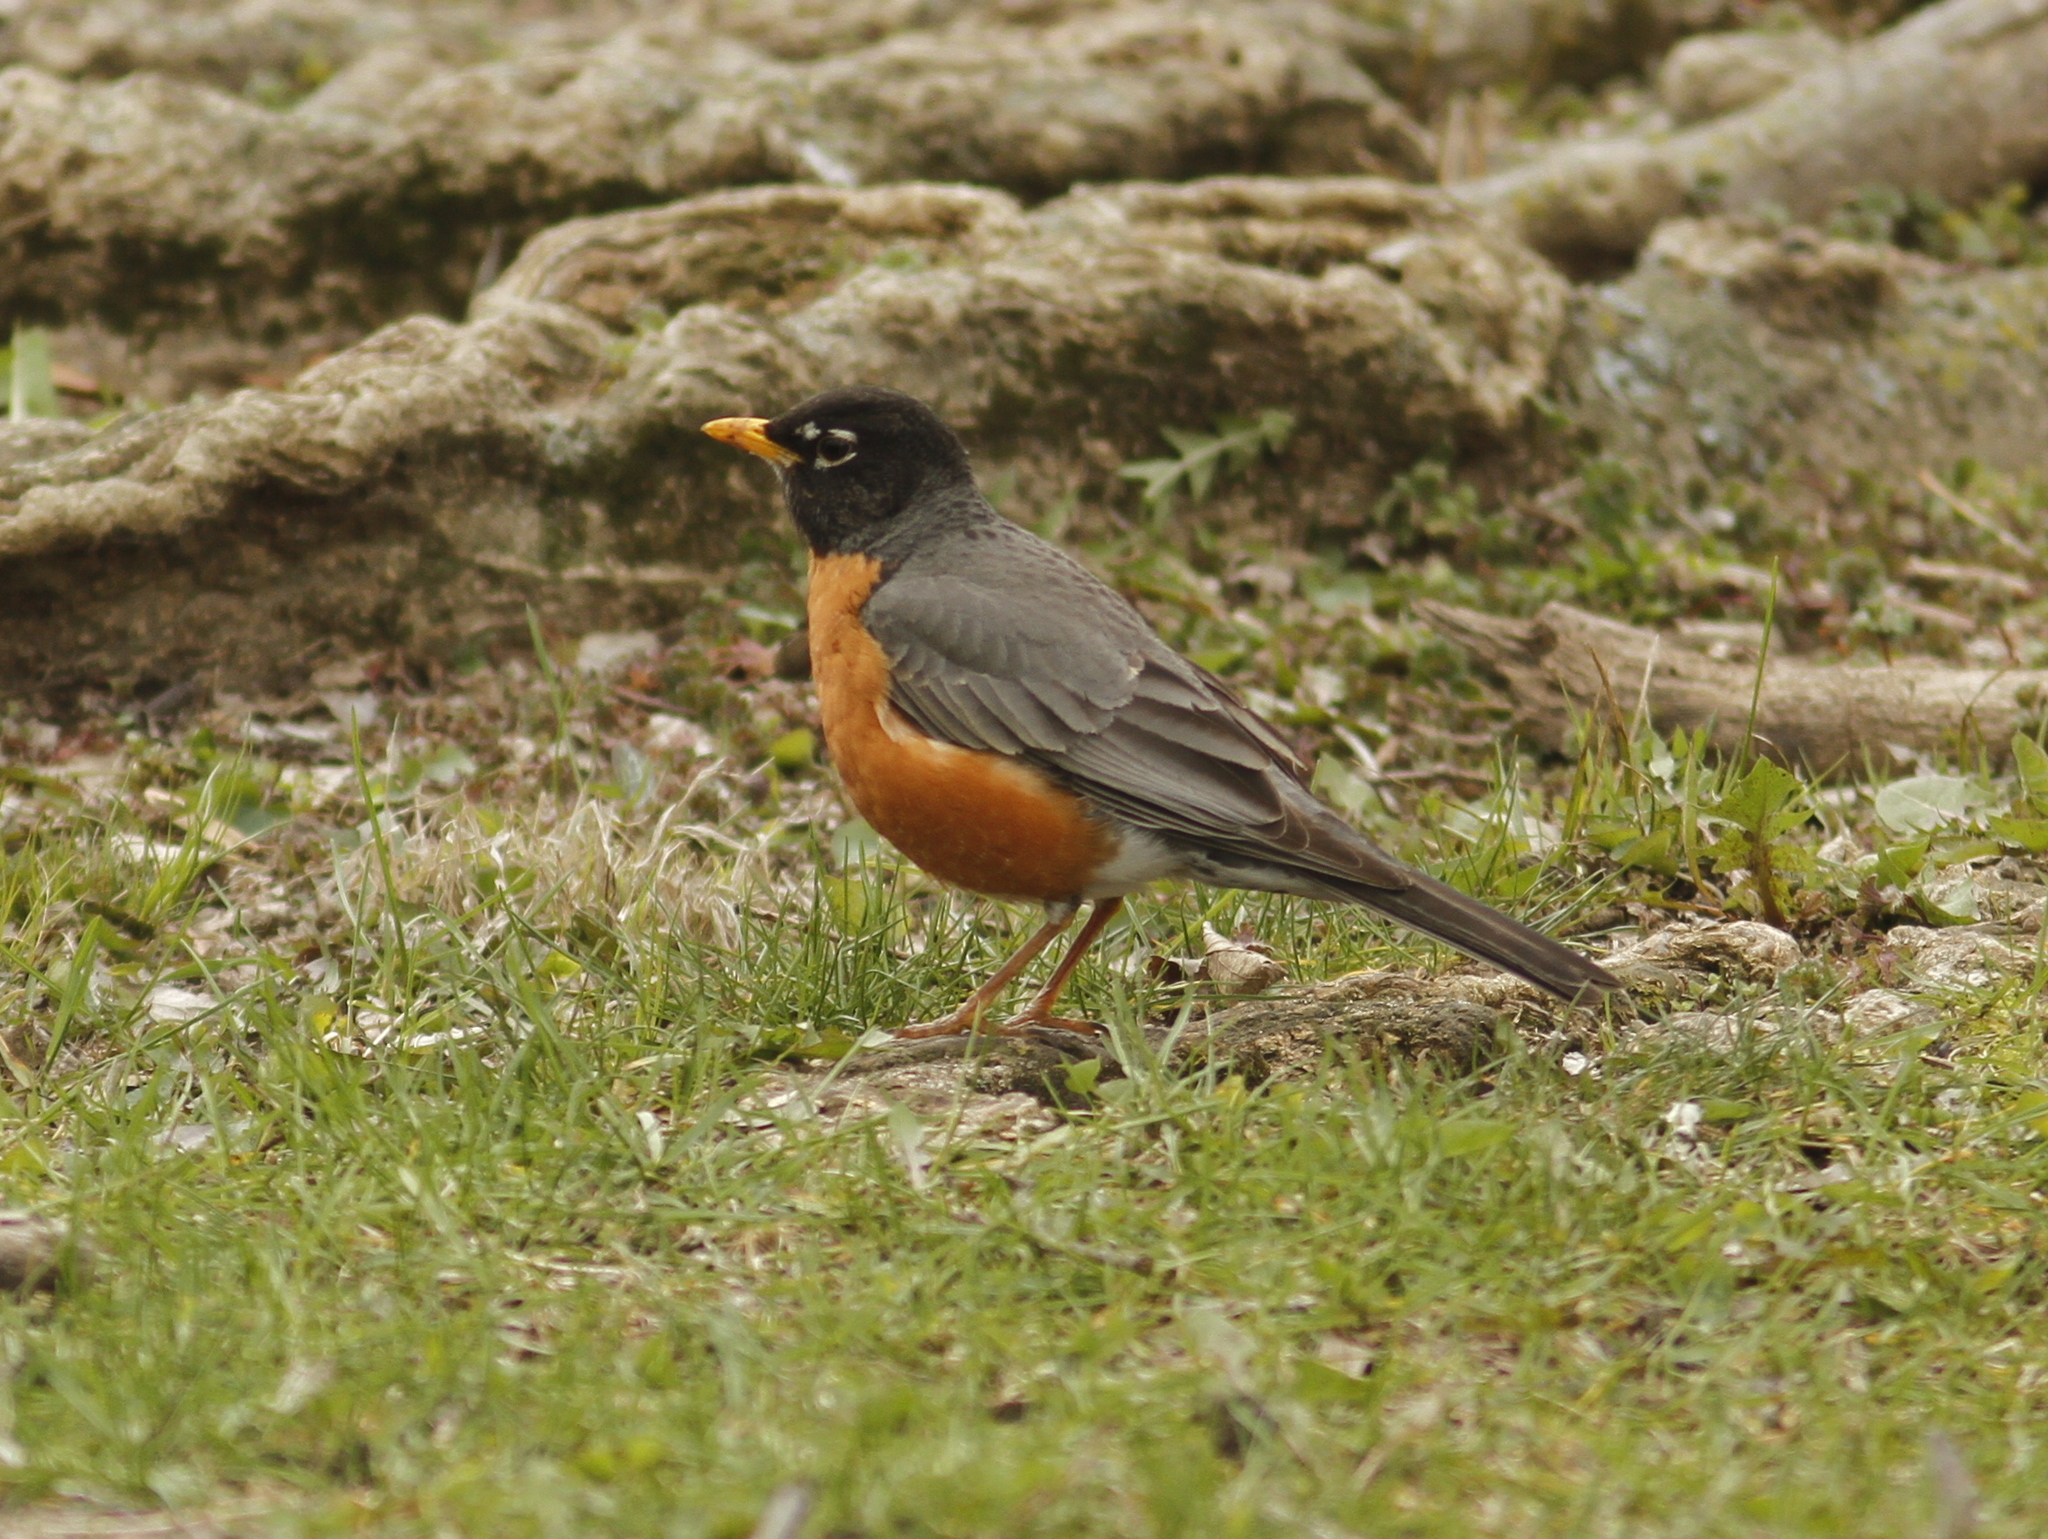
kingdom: Animalia
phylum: Chordata
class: Aves
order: Passeriformes
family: Turdidae
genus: Turdus
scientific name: Turdus migratorius
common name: American robin
